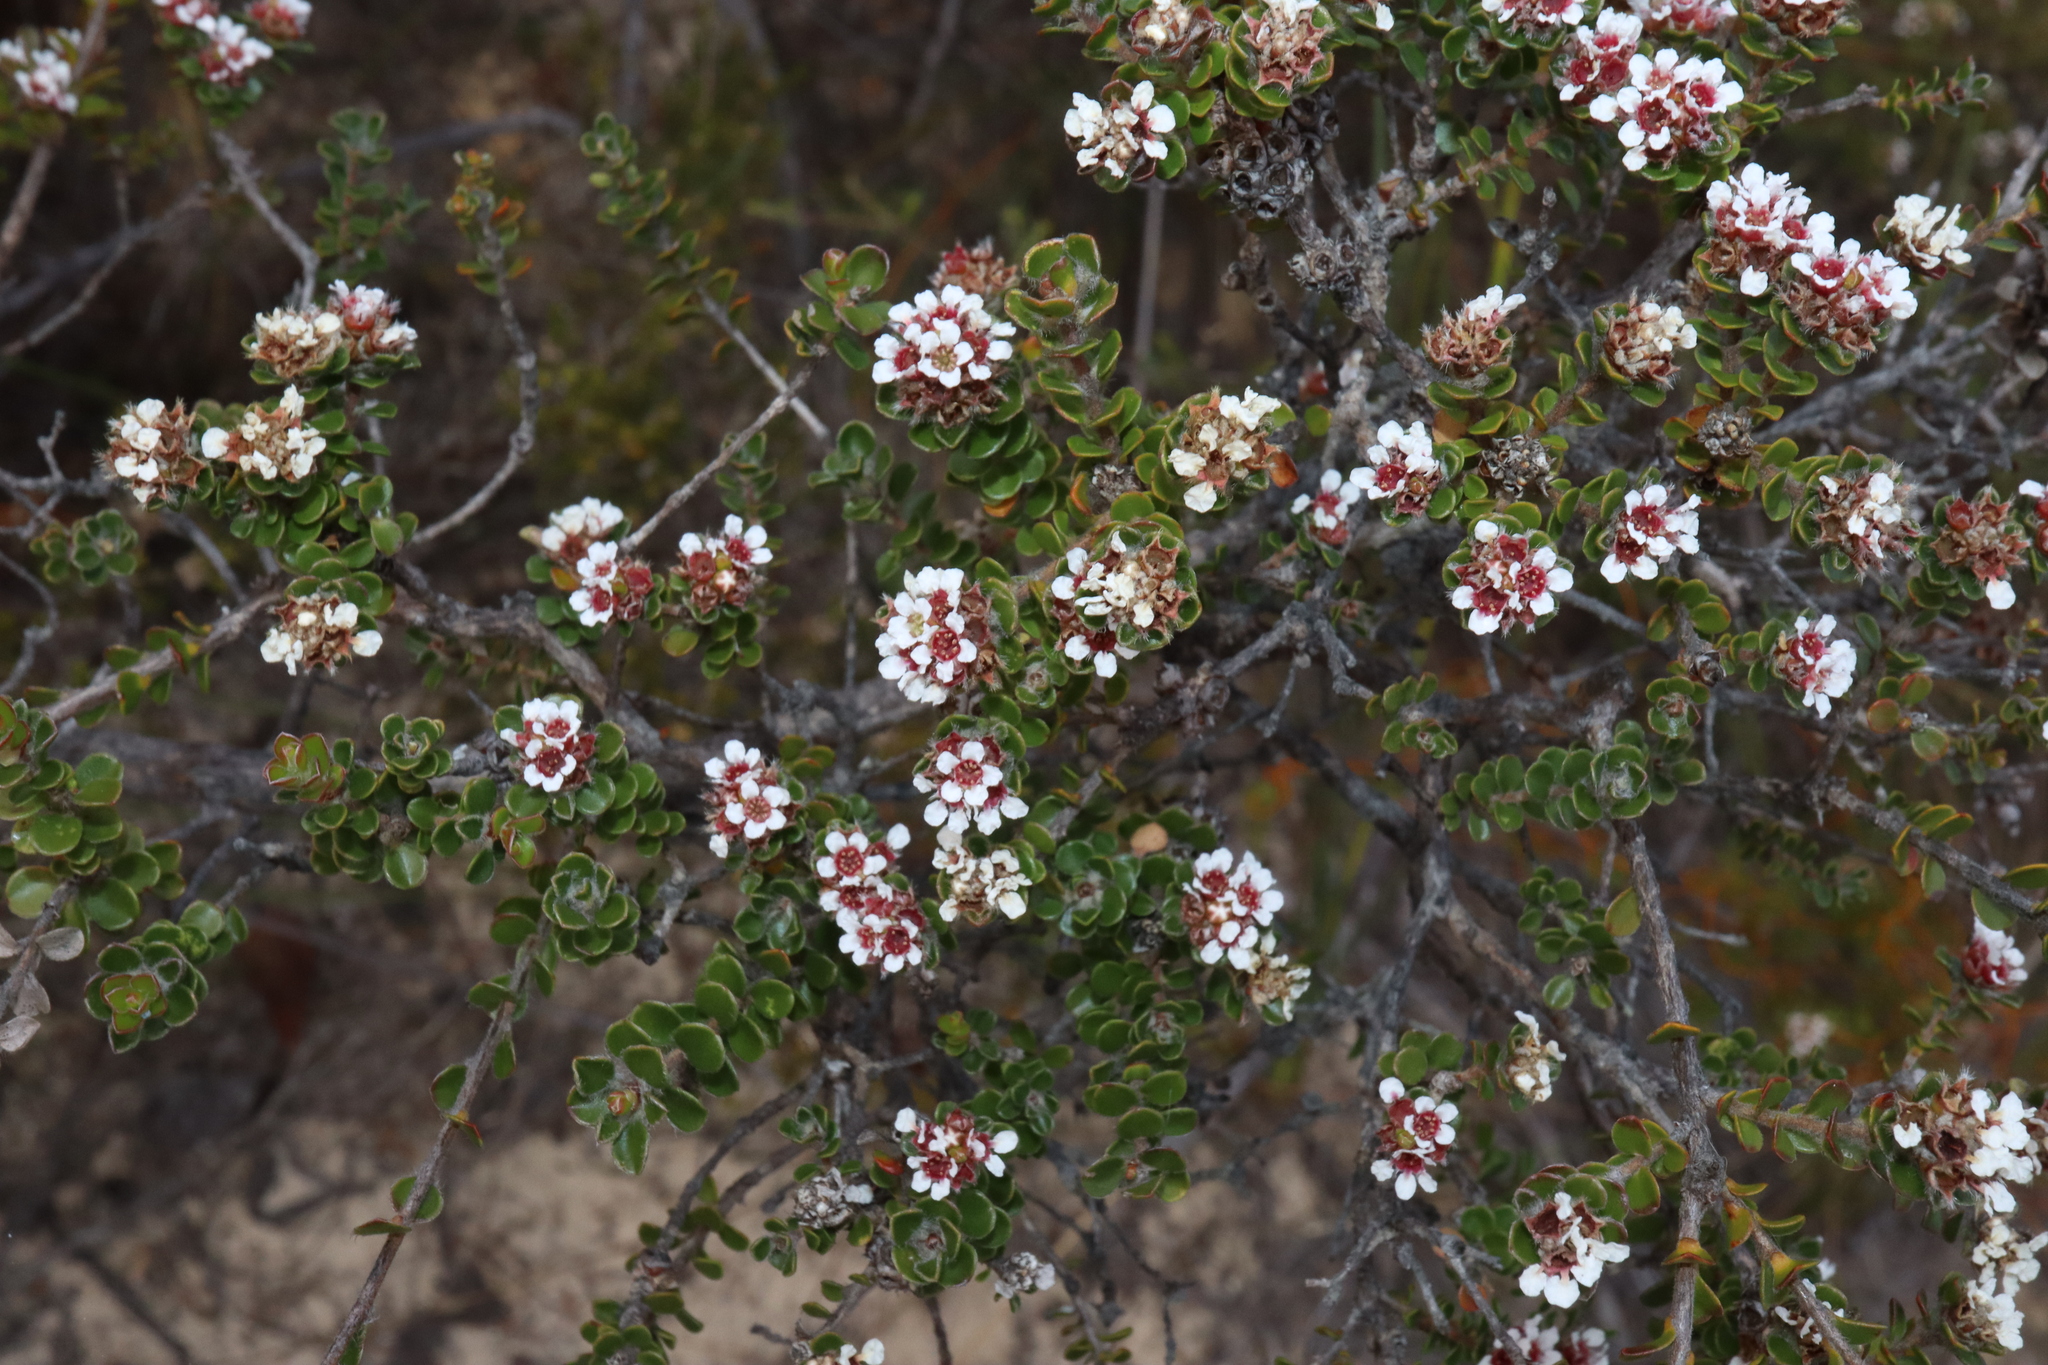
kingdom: Plantae
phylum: Tracheophyta
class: Magnoliopsida
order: Myrtales
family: Myrtaceae
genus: Taxandria
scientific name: Taxandria spathulata
